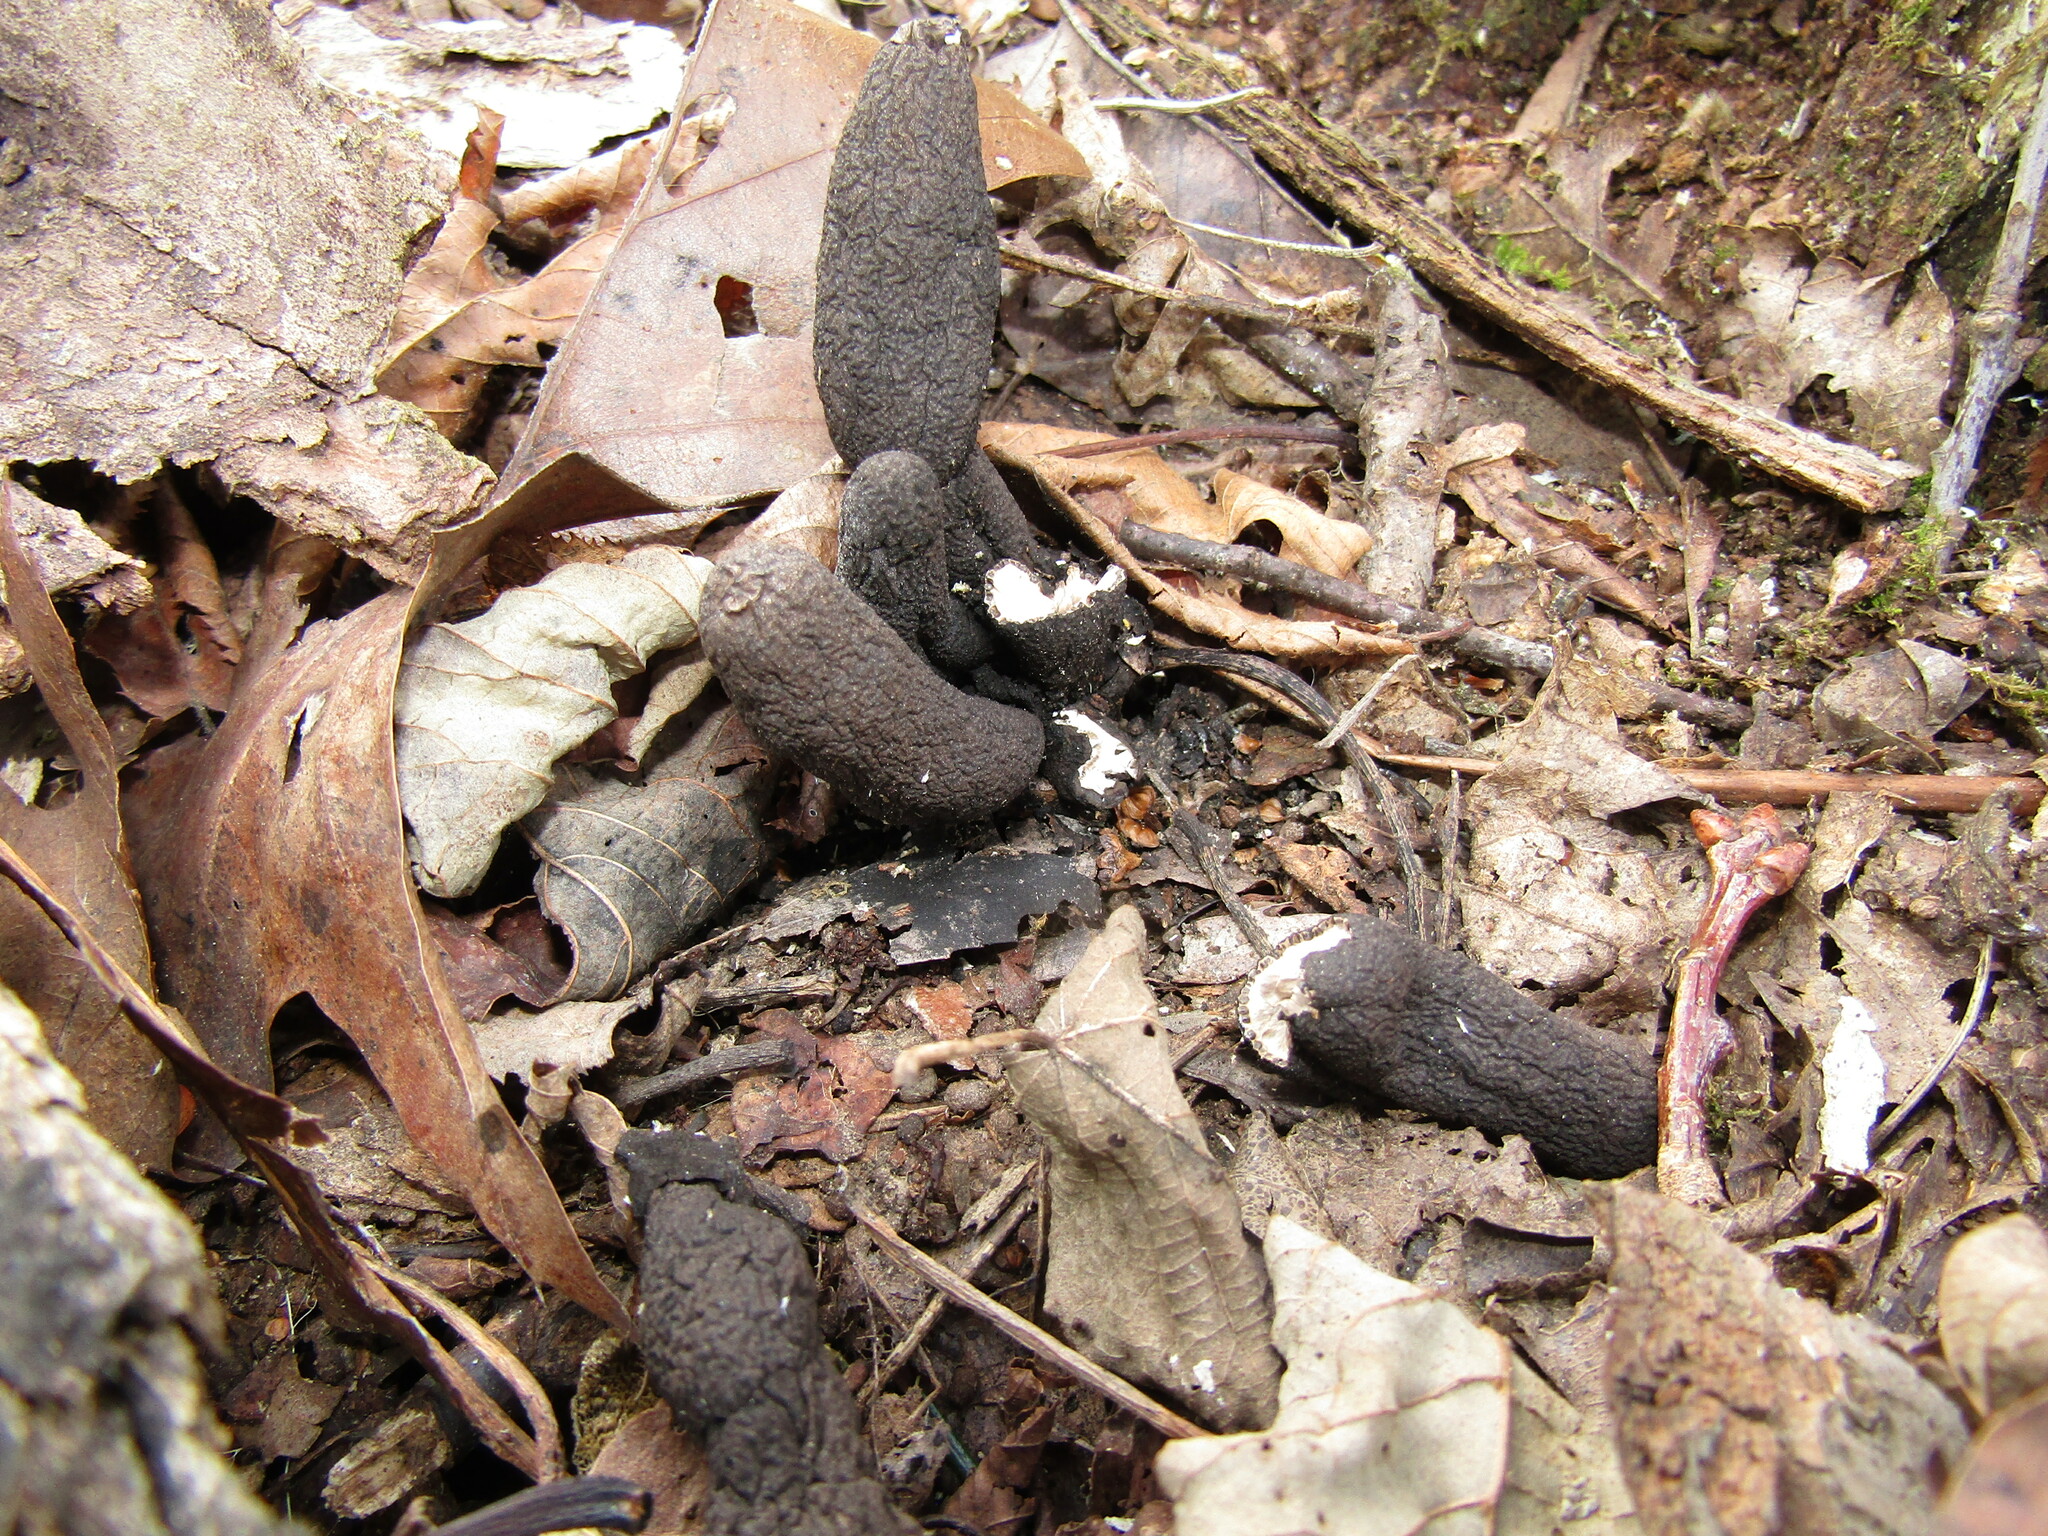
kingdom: Fungi
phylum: Ascomycota
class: Sordariomycetes
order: Xylariales
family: Xylariaceae
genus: Xylaria
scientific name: Xylaria polymorpha
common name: Dead man's fingers
